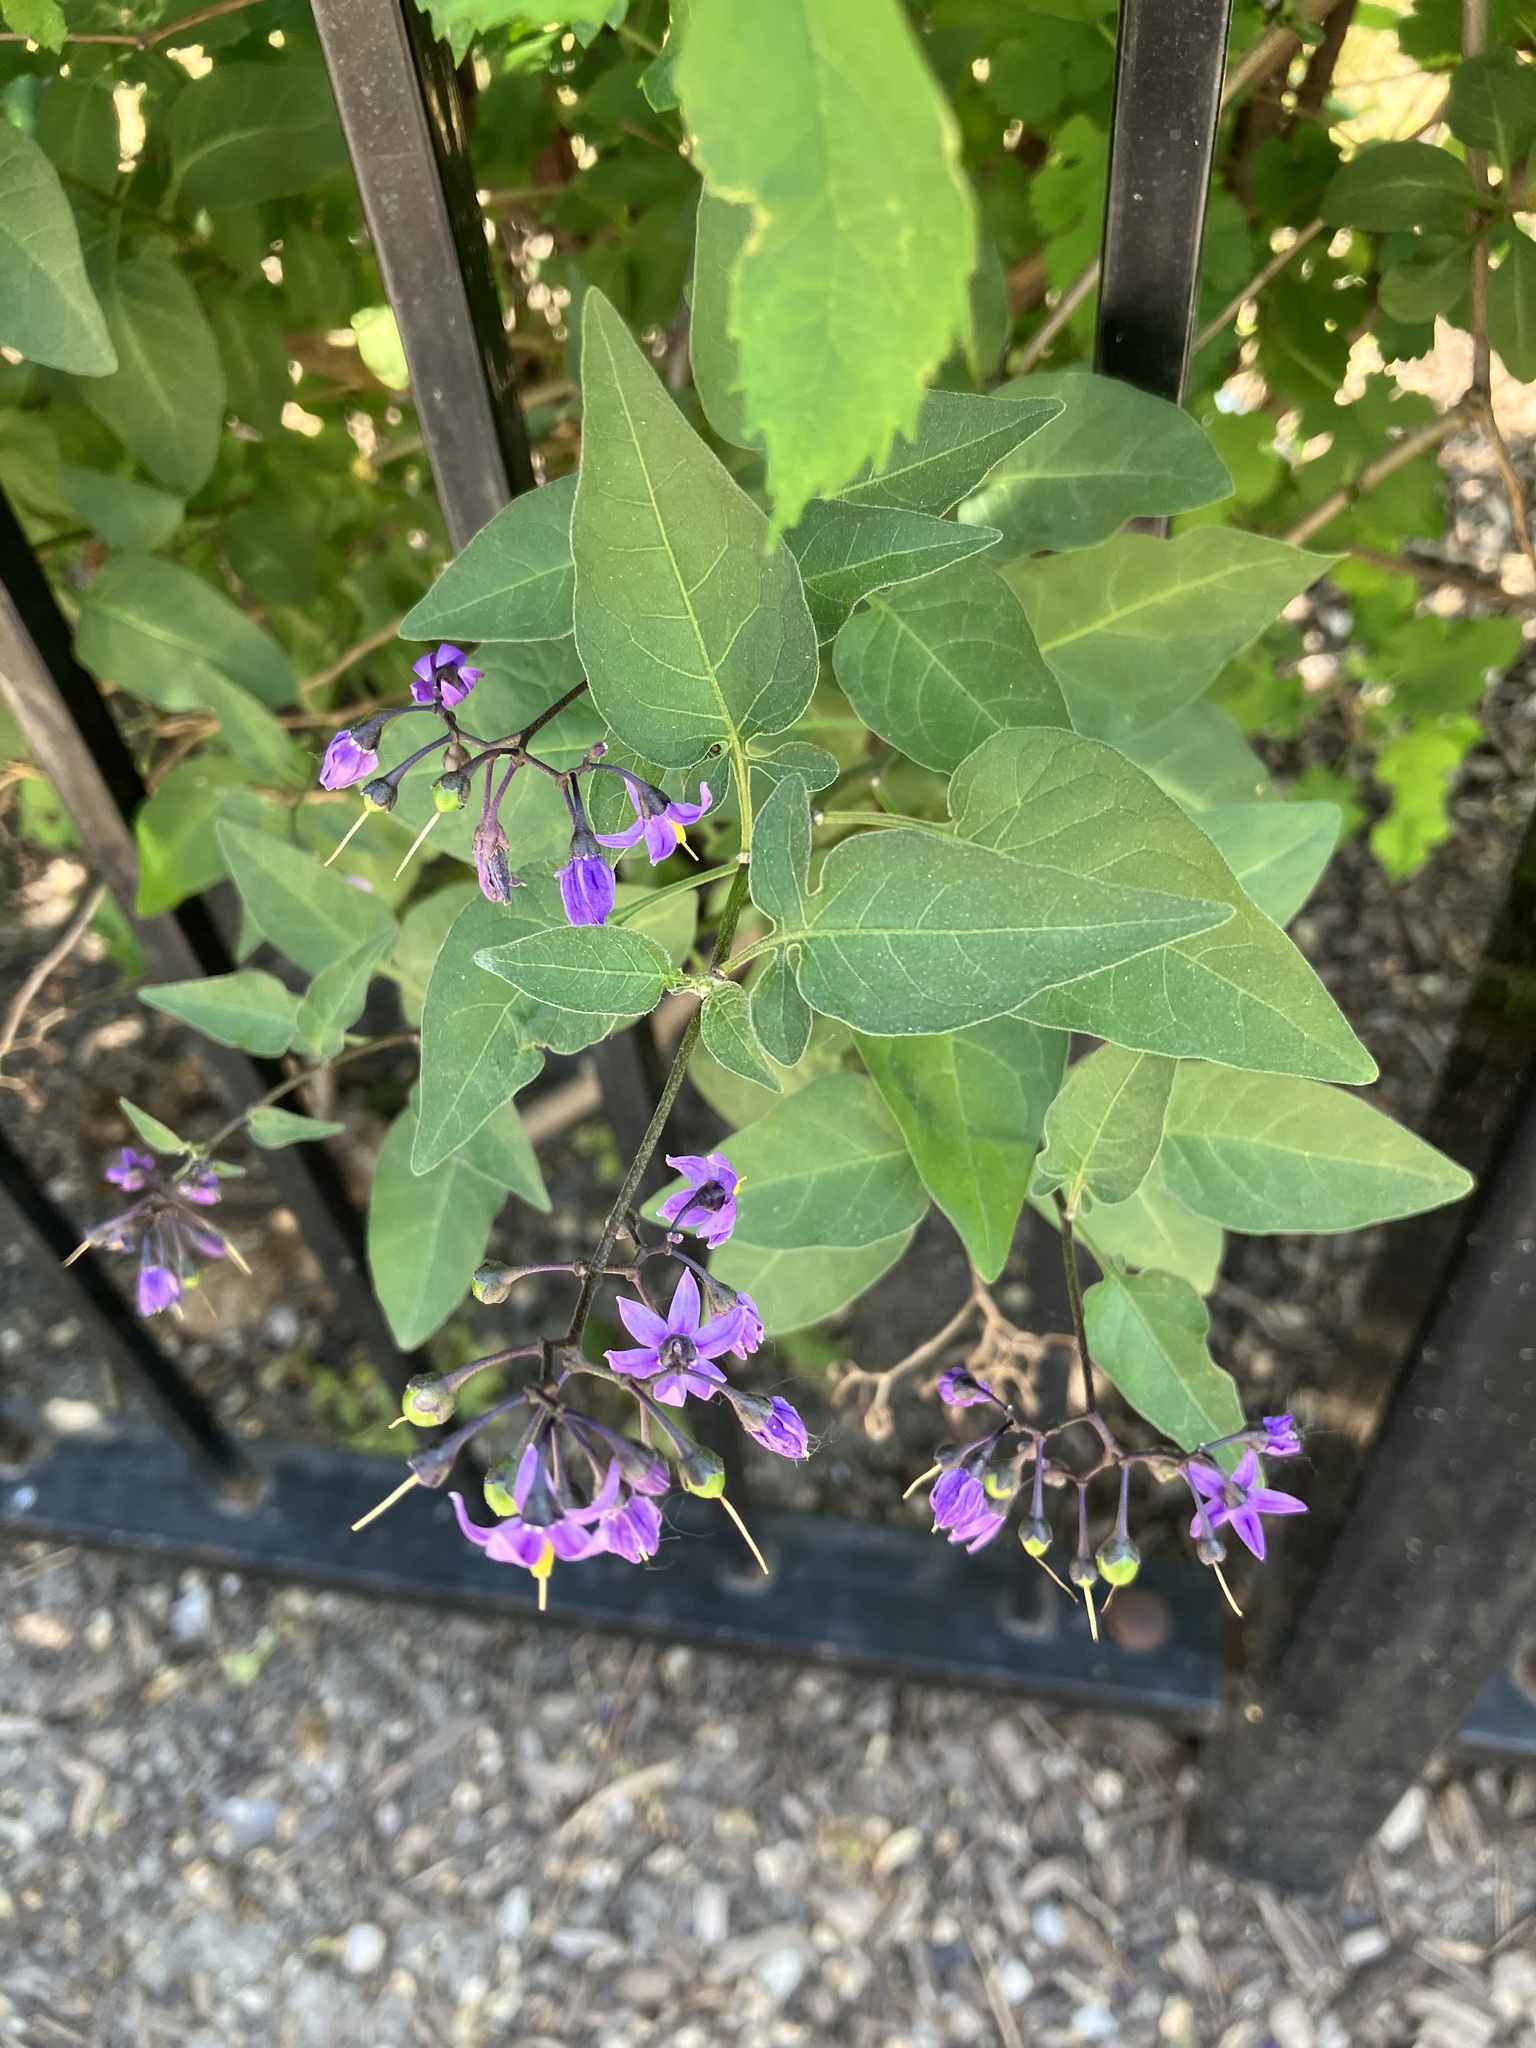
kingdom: Plantae
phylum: Tracheophyta
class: Magnoliopsida
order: Solanales
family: Solanaceae
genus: Solanum
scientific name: Solanum dulcamara
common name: Climbing nightshade
